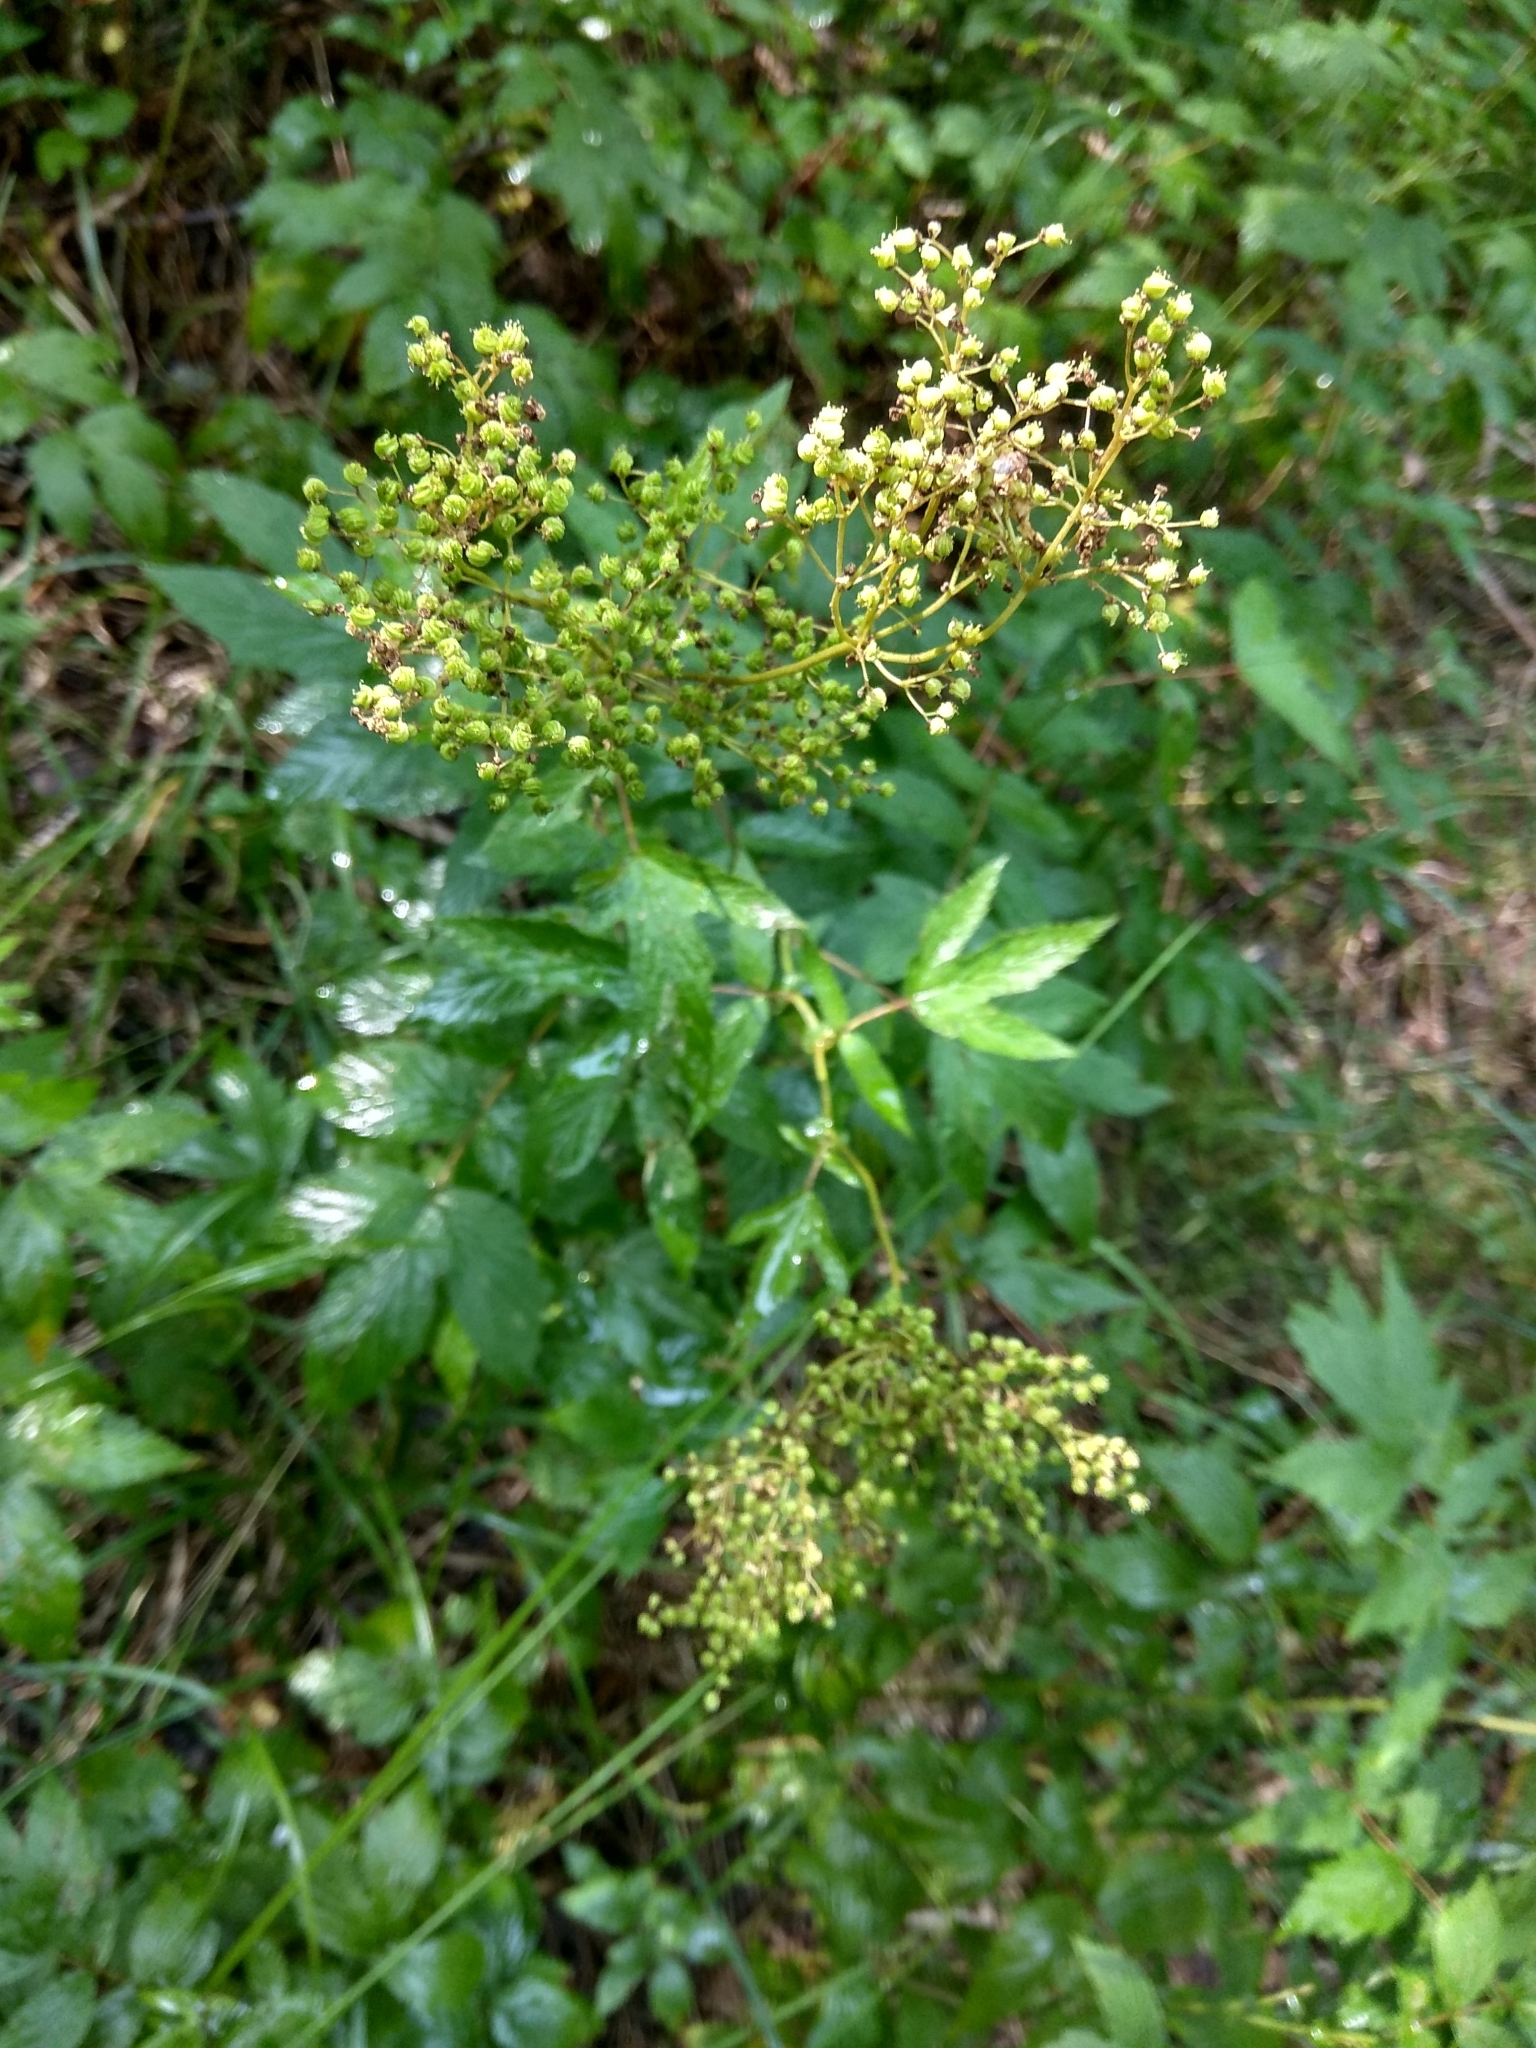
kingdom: Plantae
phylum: Tracheophyta
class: Magnoliopsida
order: Rosales
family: Rosaceae
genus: Filipendula
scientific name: Filipendula ulmaria
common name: Meadowsweet
